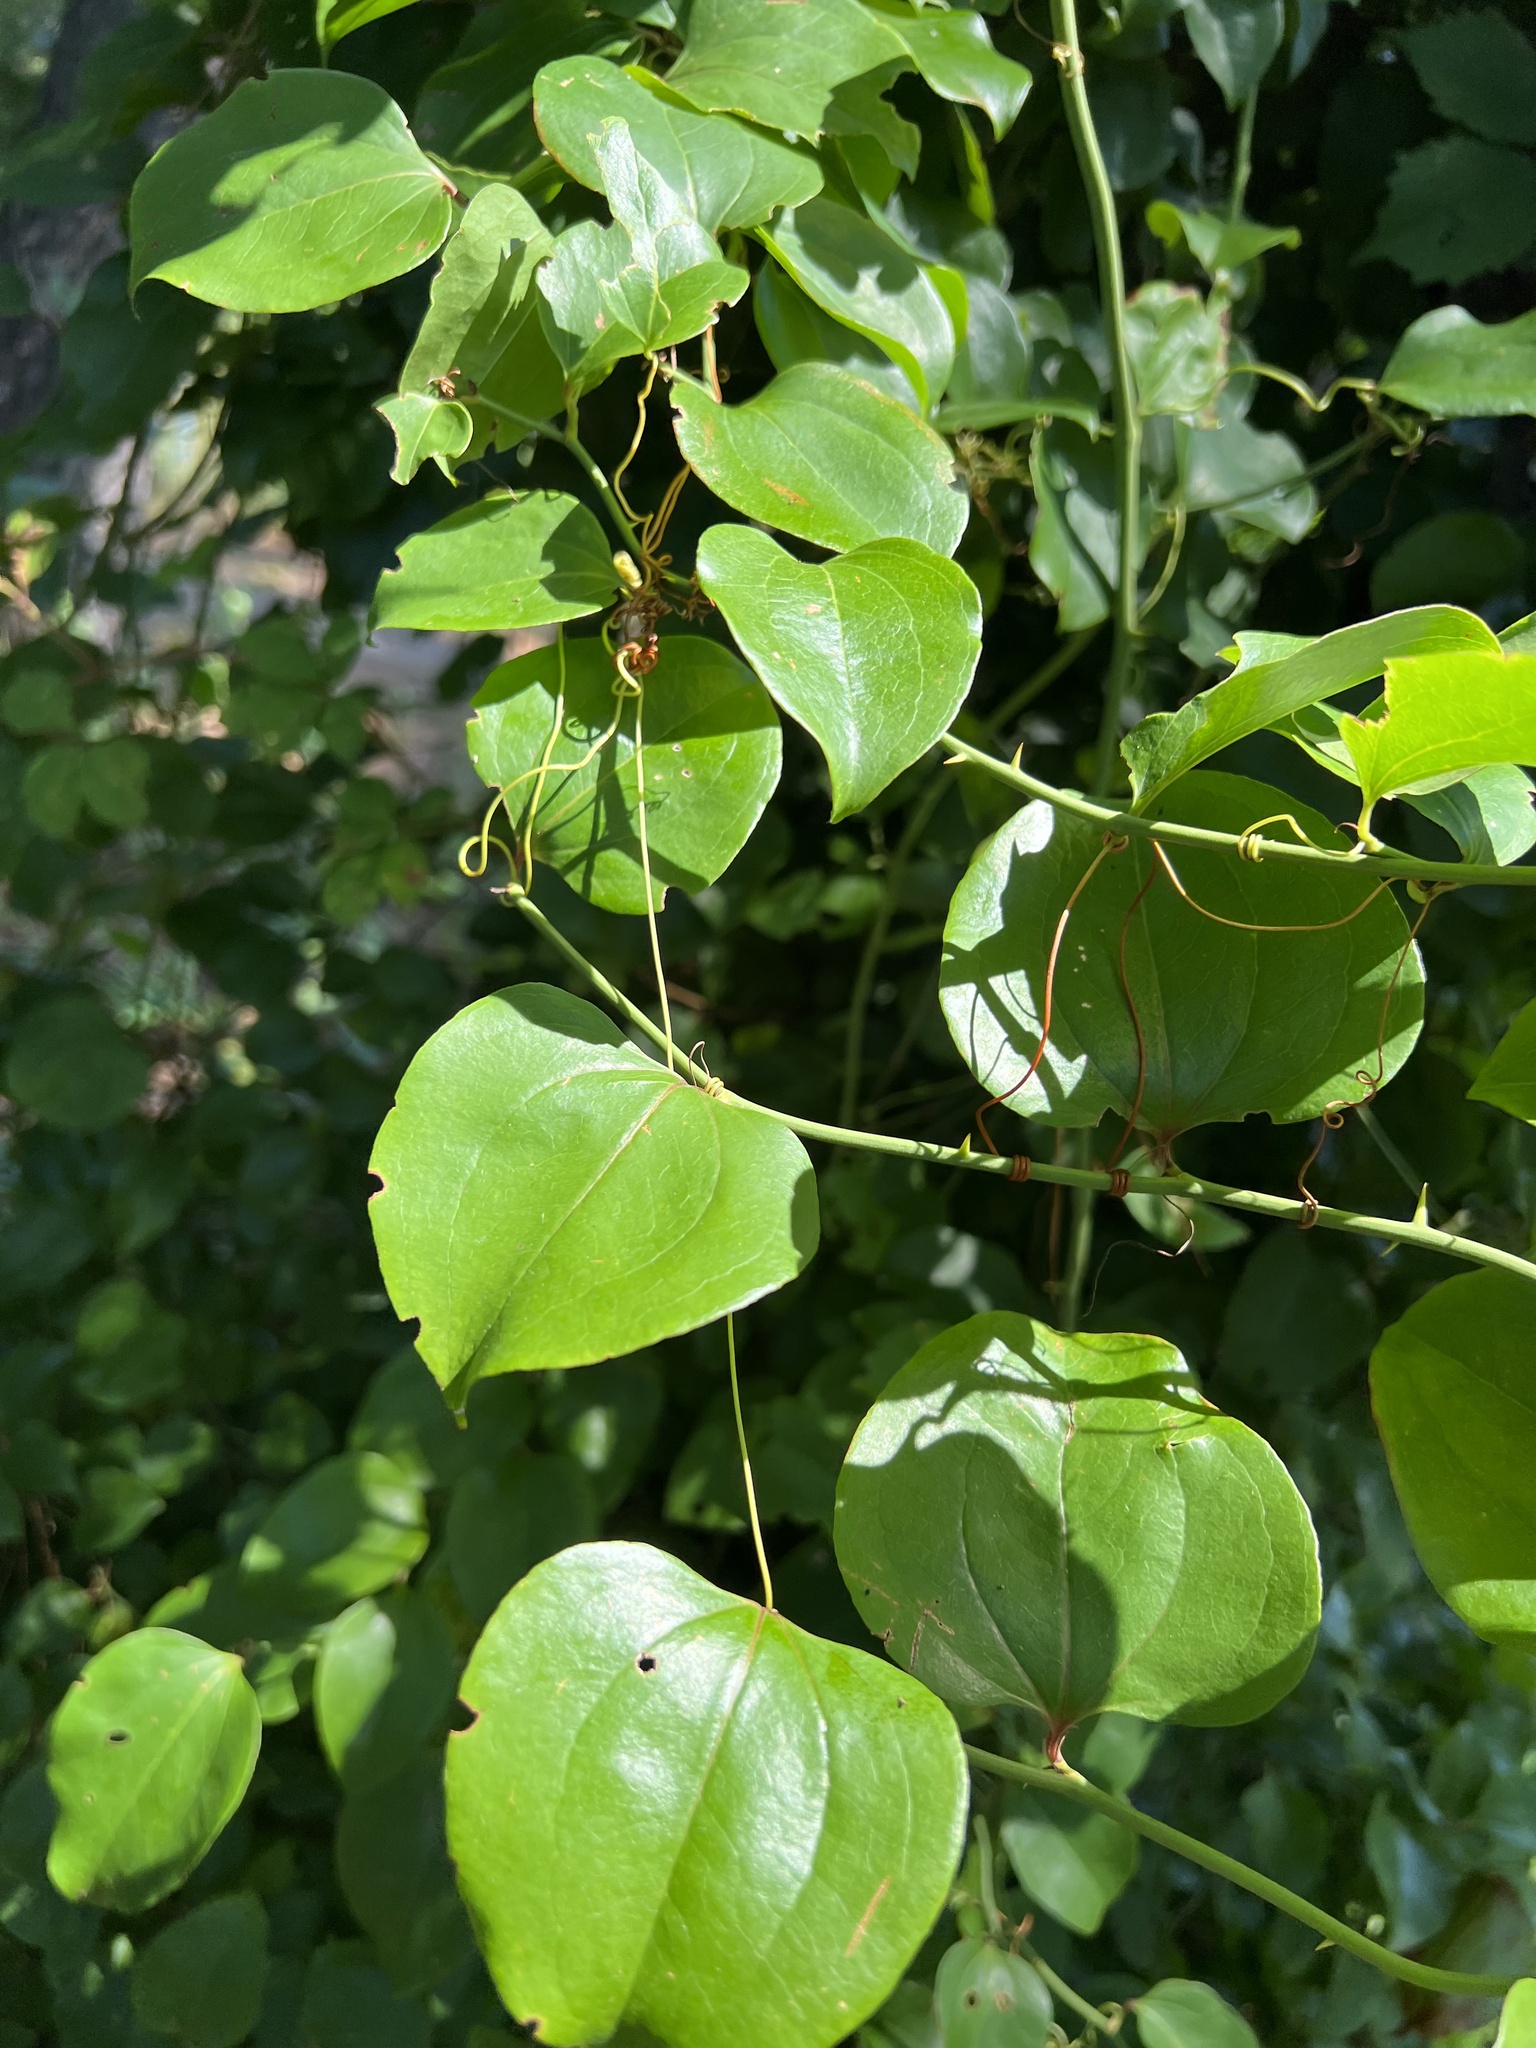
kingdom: Plantae
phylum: Tracheophyta
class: Liliopsida
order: Liliales
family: Smilacaceae
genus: Smilax
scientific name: Smilax rotundifolia
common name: Bullbriar
